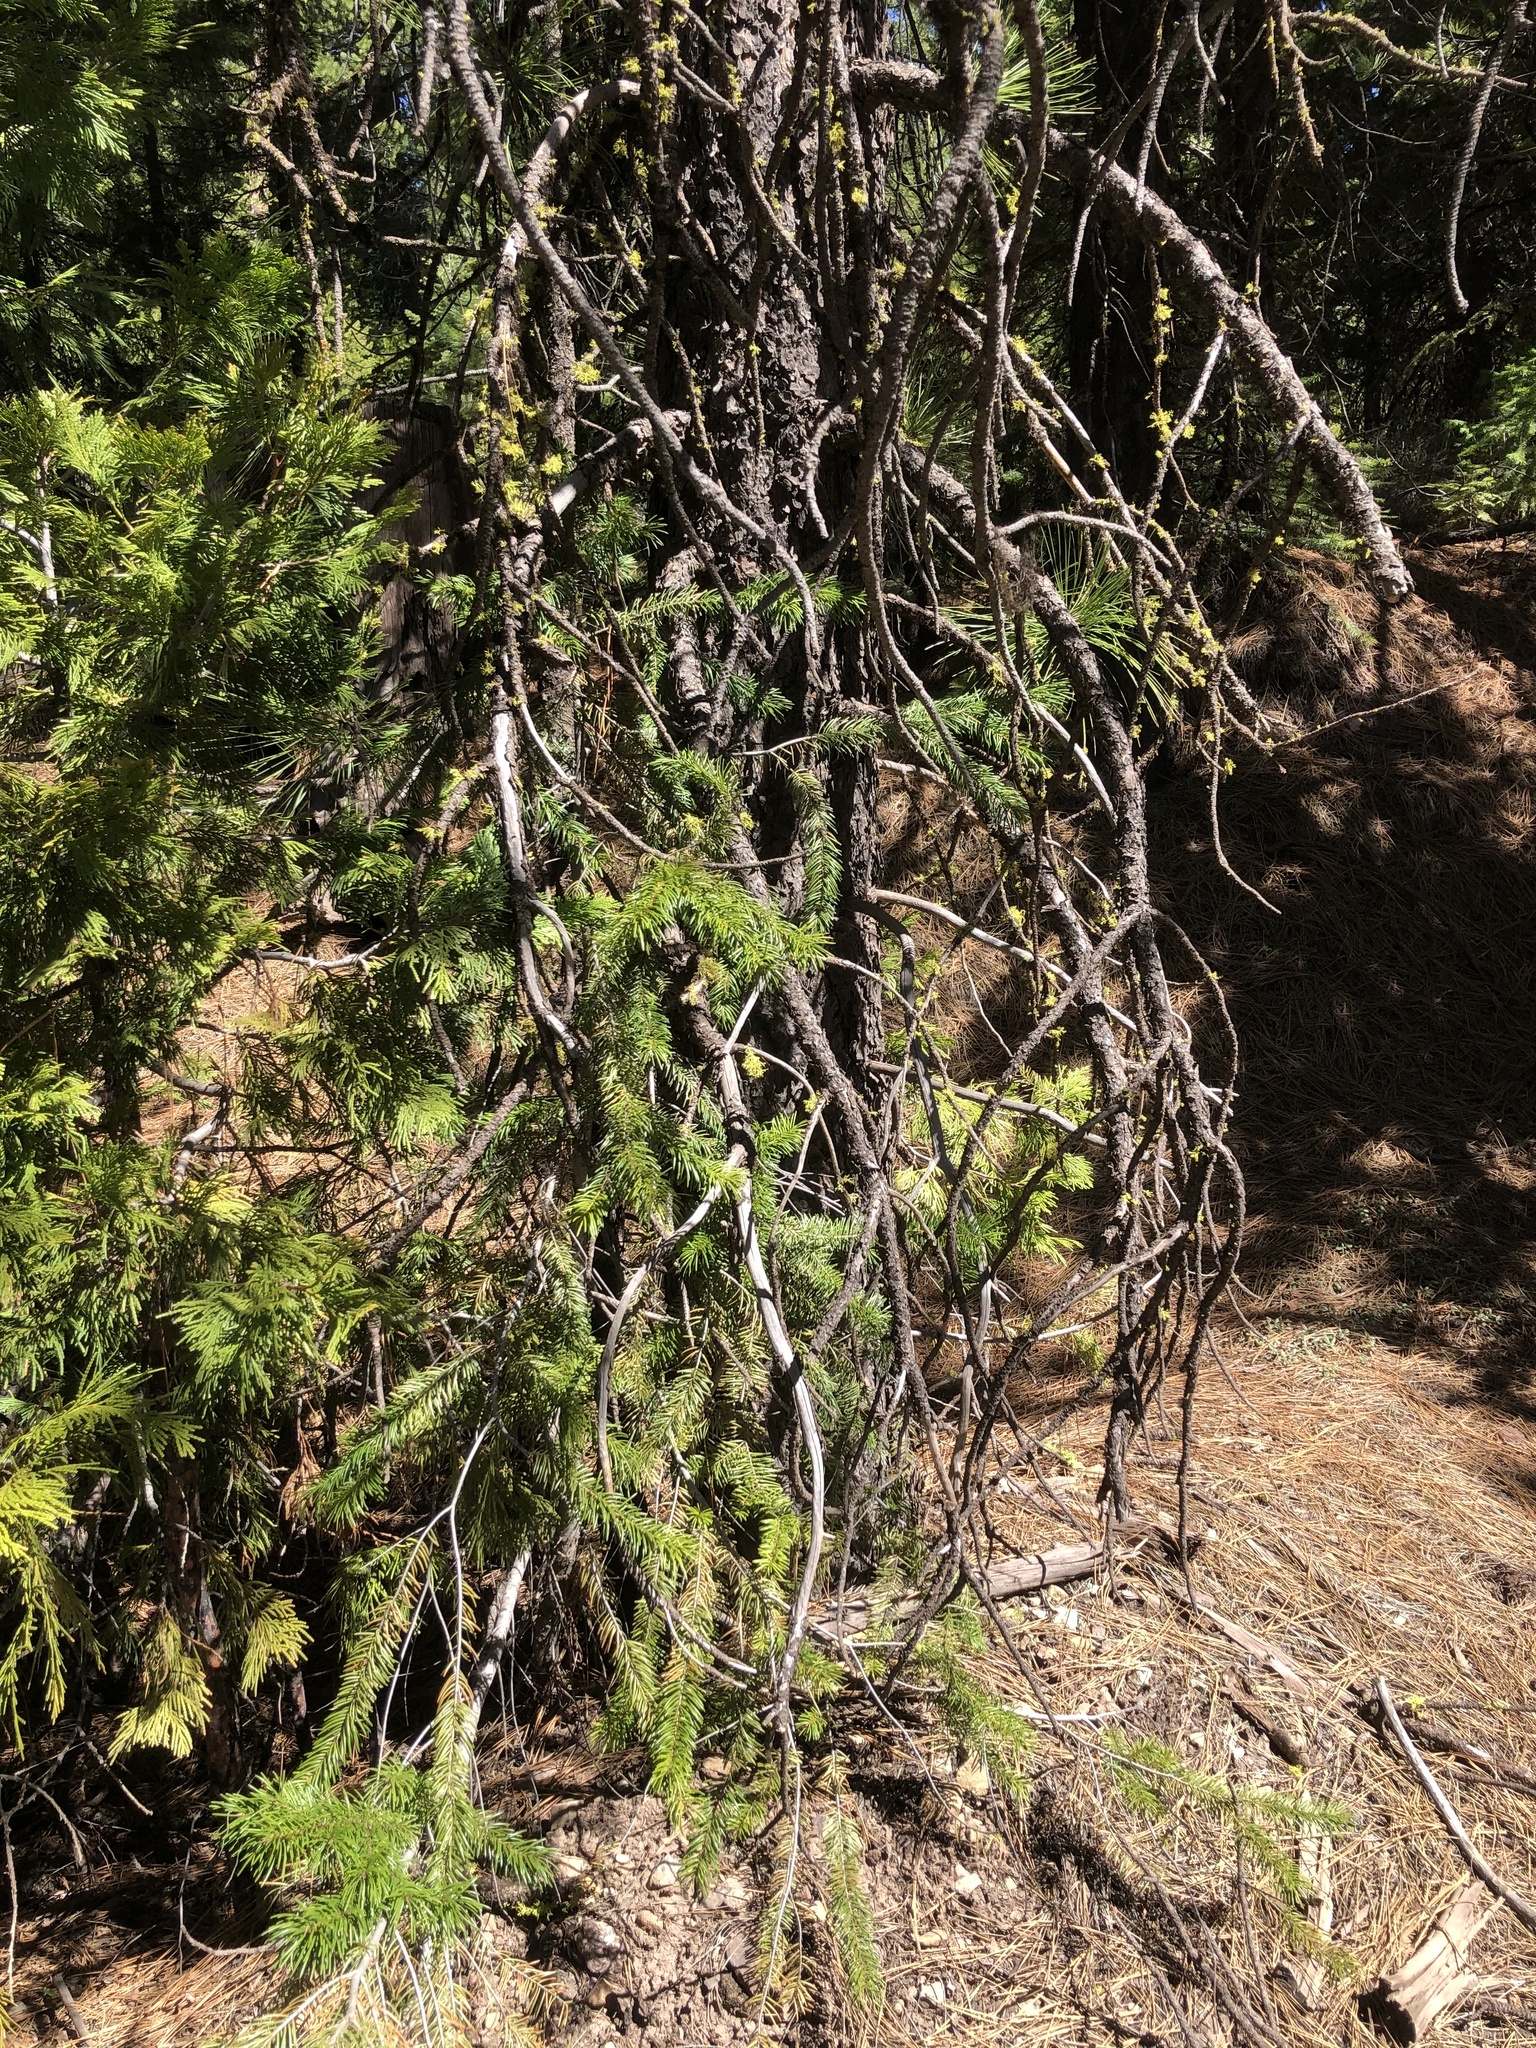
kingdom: Plantae
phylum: Tracheophyta
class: Pinopsida
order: Pinales
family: Pinaceae
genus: Pseudotsuga
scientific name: Pseudotsuga menziesii
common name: Douglas fir
